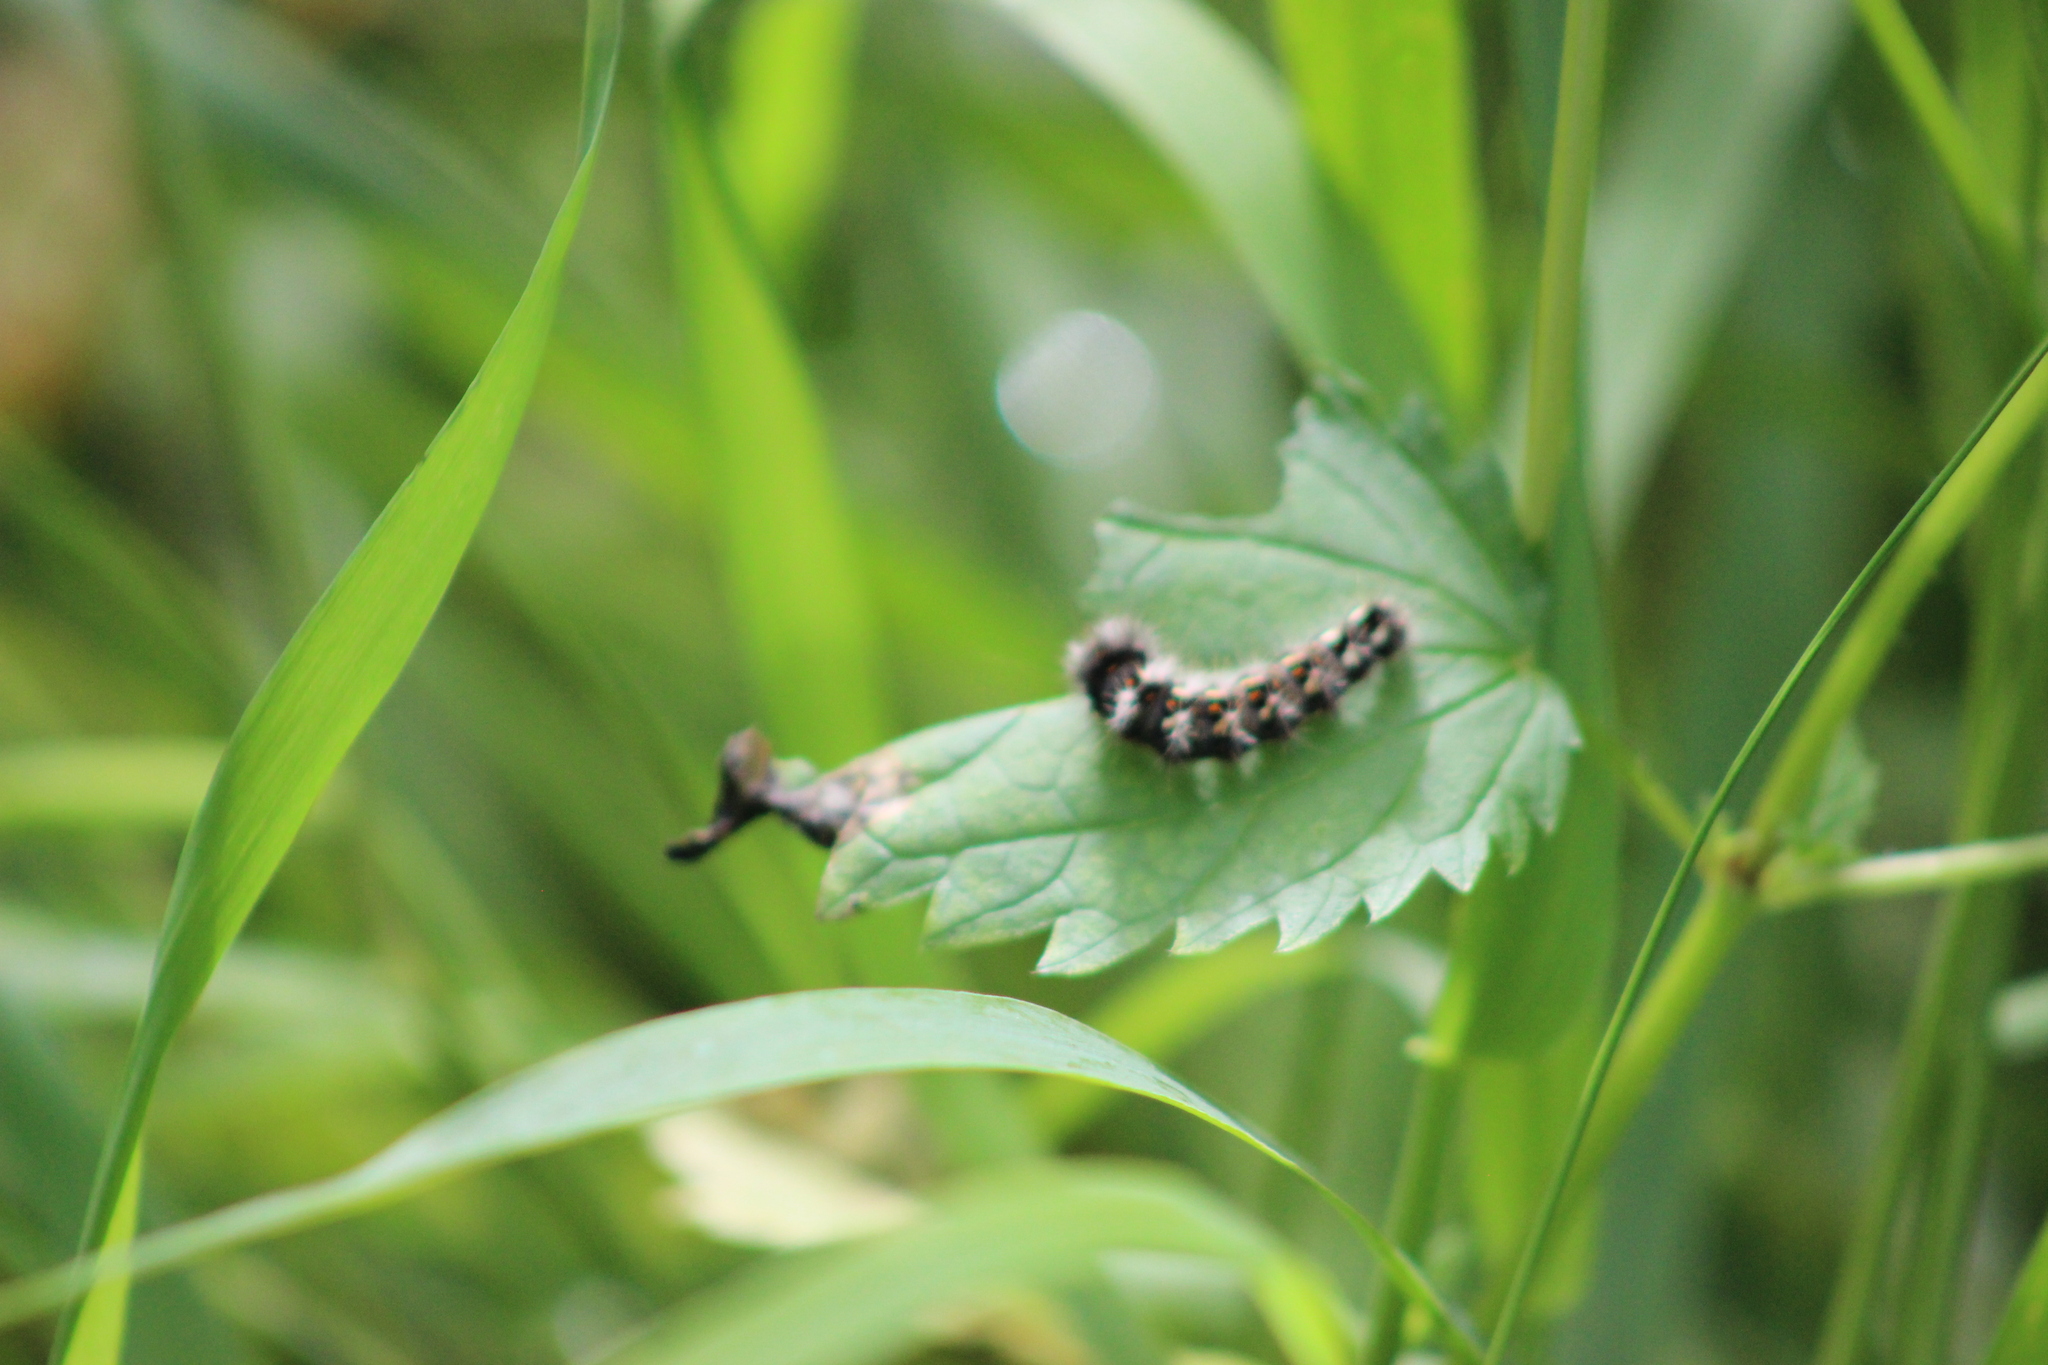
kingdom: Animalia
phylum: Arthropoda
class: Insecta
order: Lepidoptera
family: Noctuidae
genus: Acronicta
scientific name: Acronicta rumicis
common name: Knot grass
